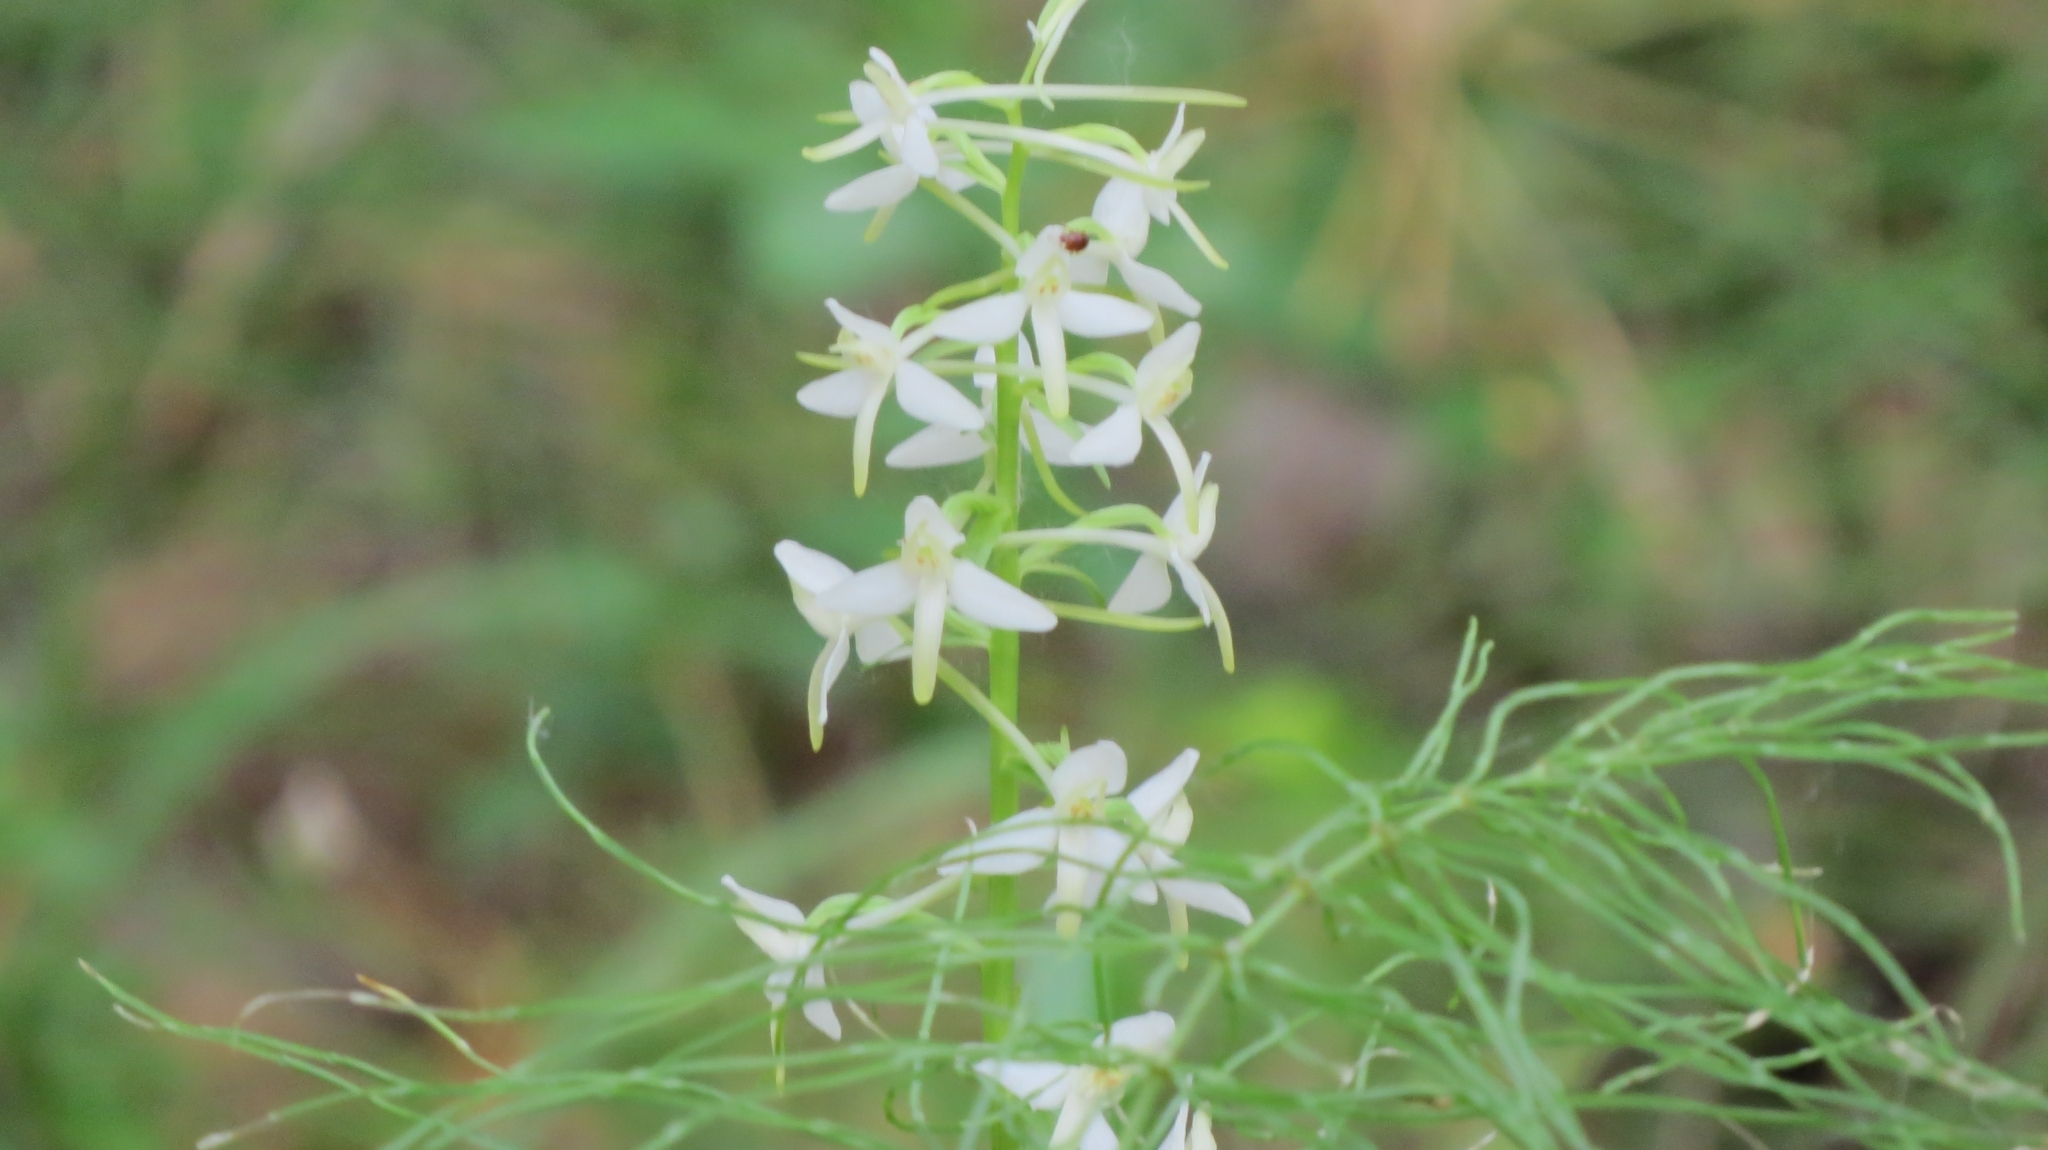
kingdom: Plantae
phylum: Tracheophyta
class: Liliopsida
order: Asparagales
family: Orchidaceae
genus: Platanthera
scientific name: Platanthera bifolia
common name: Lesser butterfly-orchid
